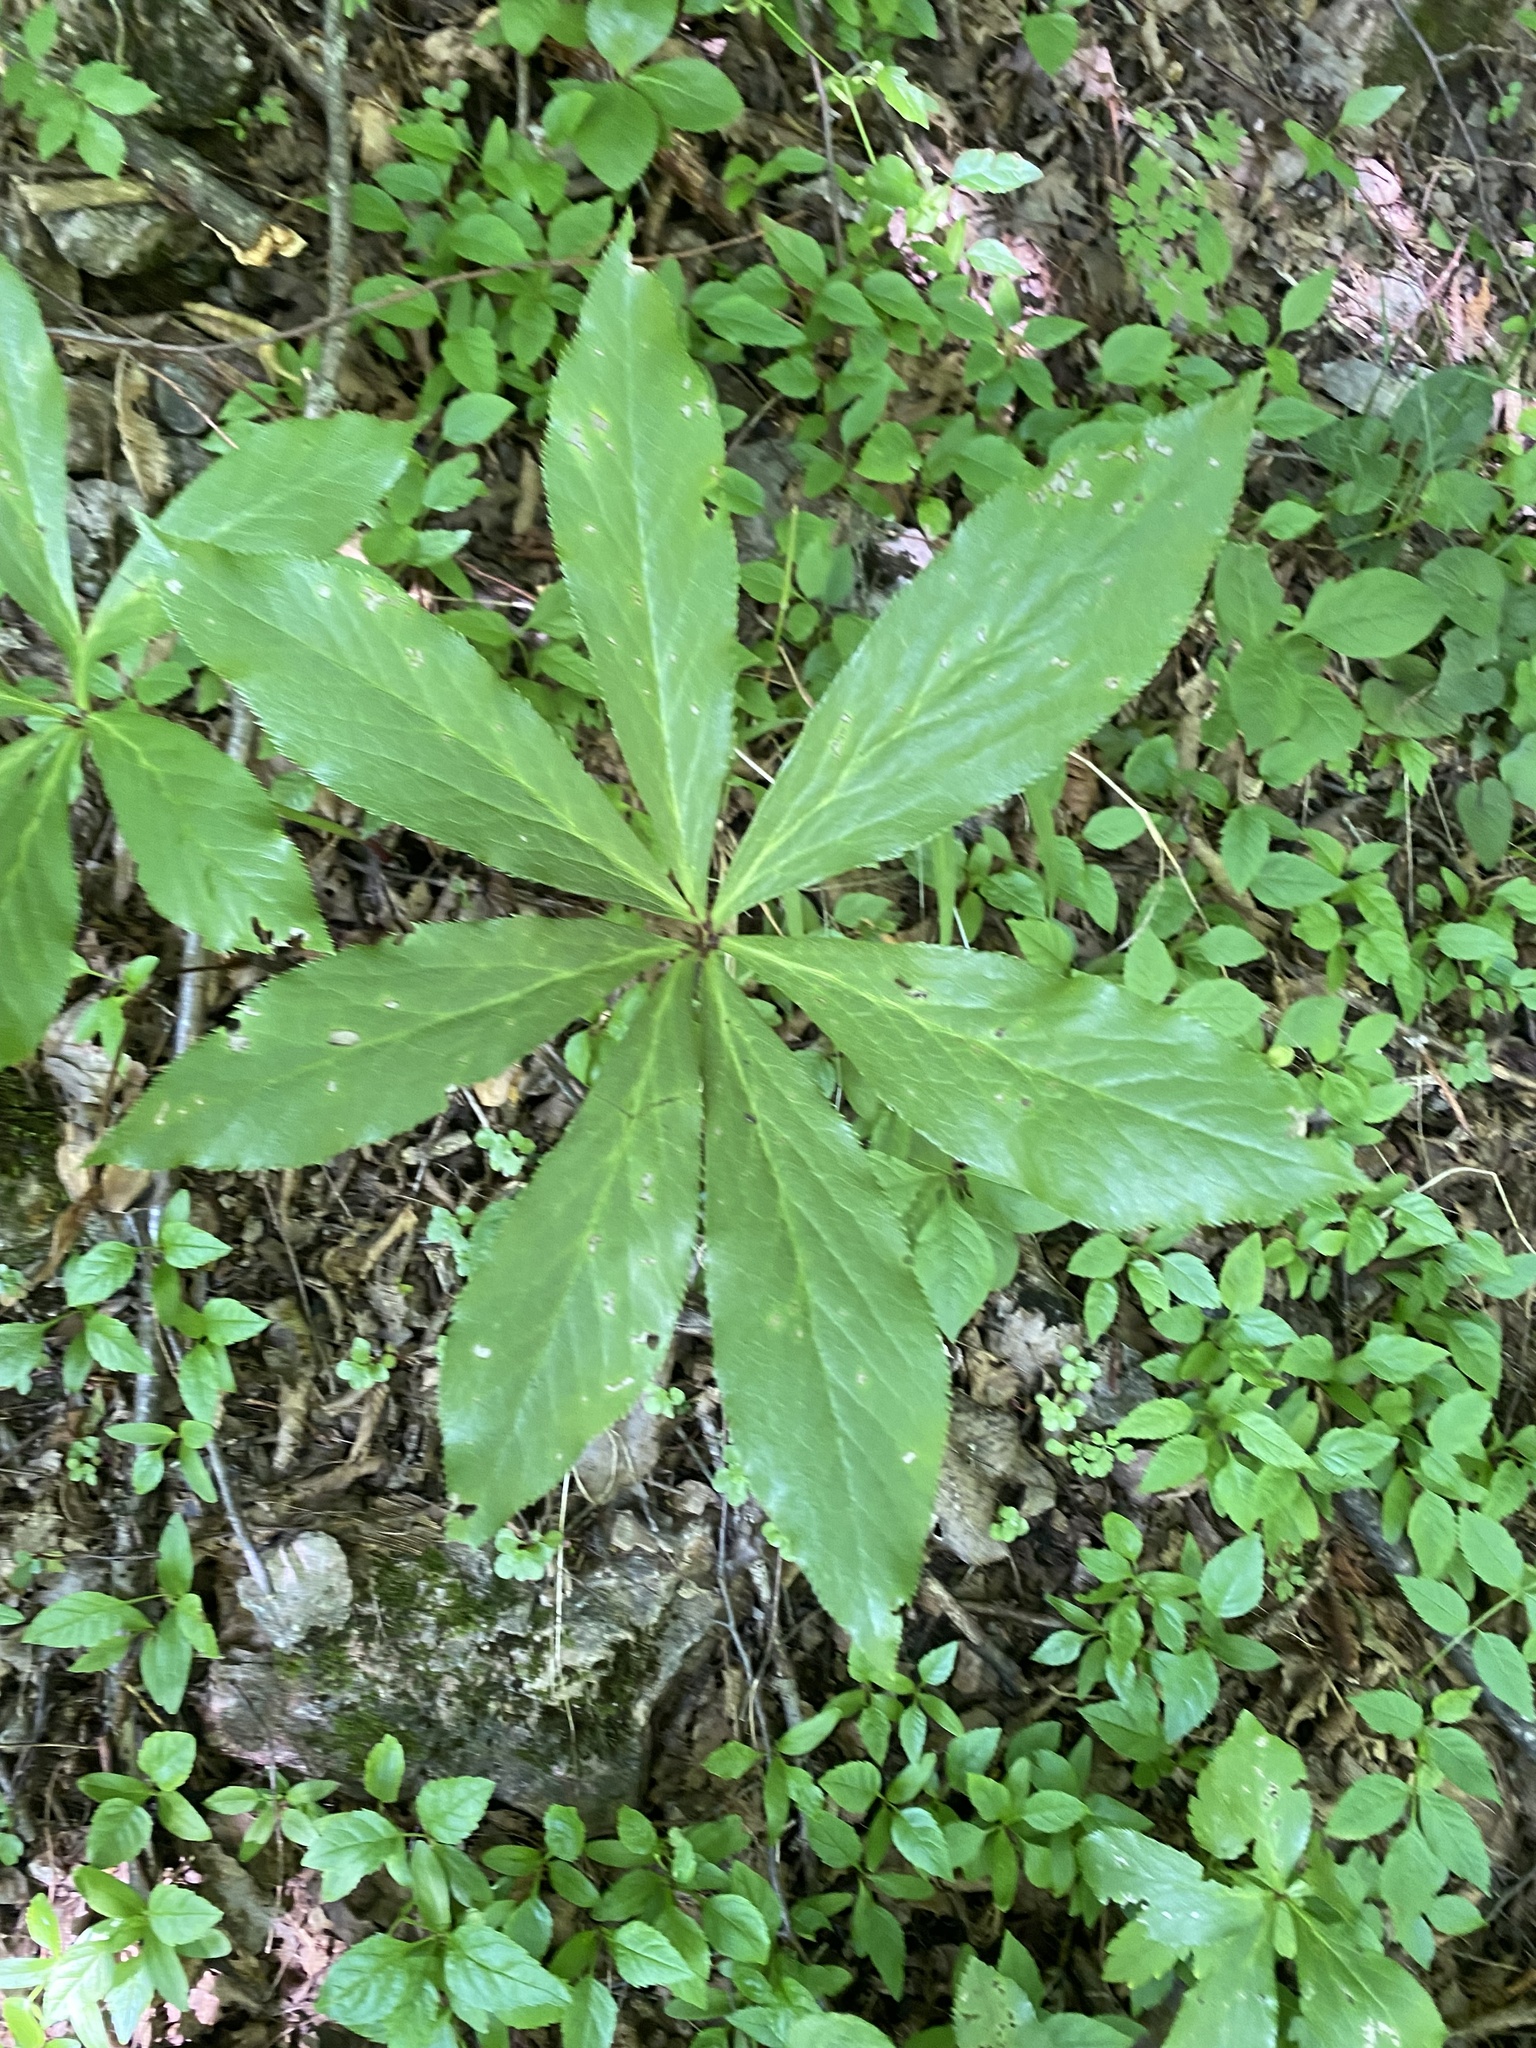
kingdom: Plantae
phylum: Tracheophyta
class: Magnoliopsida
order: Ranunculales
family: Ranunculaceae
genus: Helleborus
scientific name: Helleborus orientalis
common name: Lenten-rose
